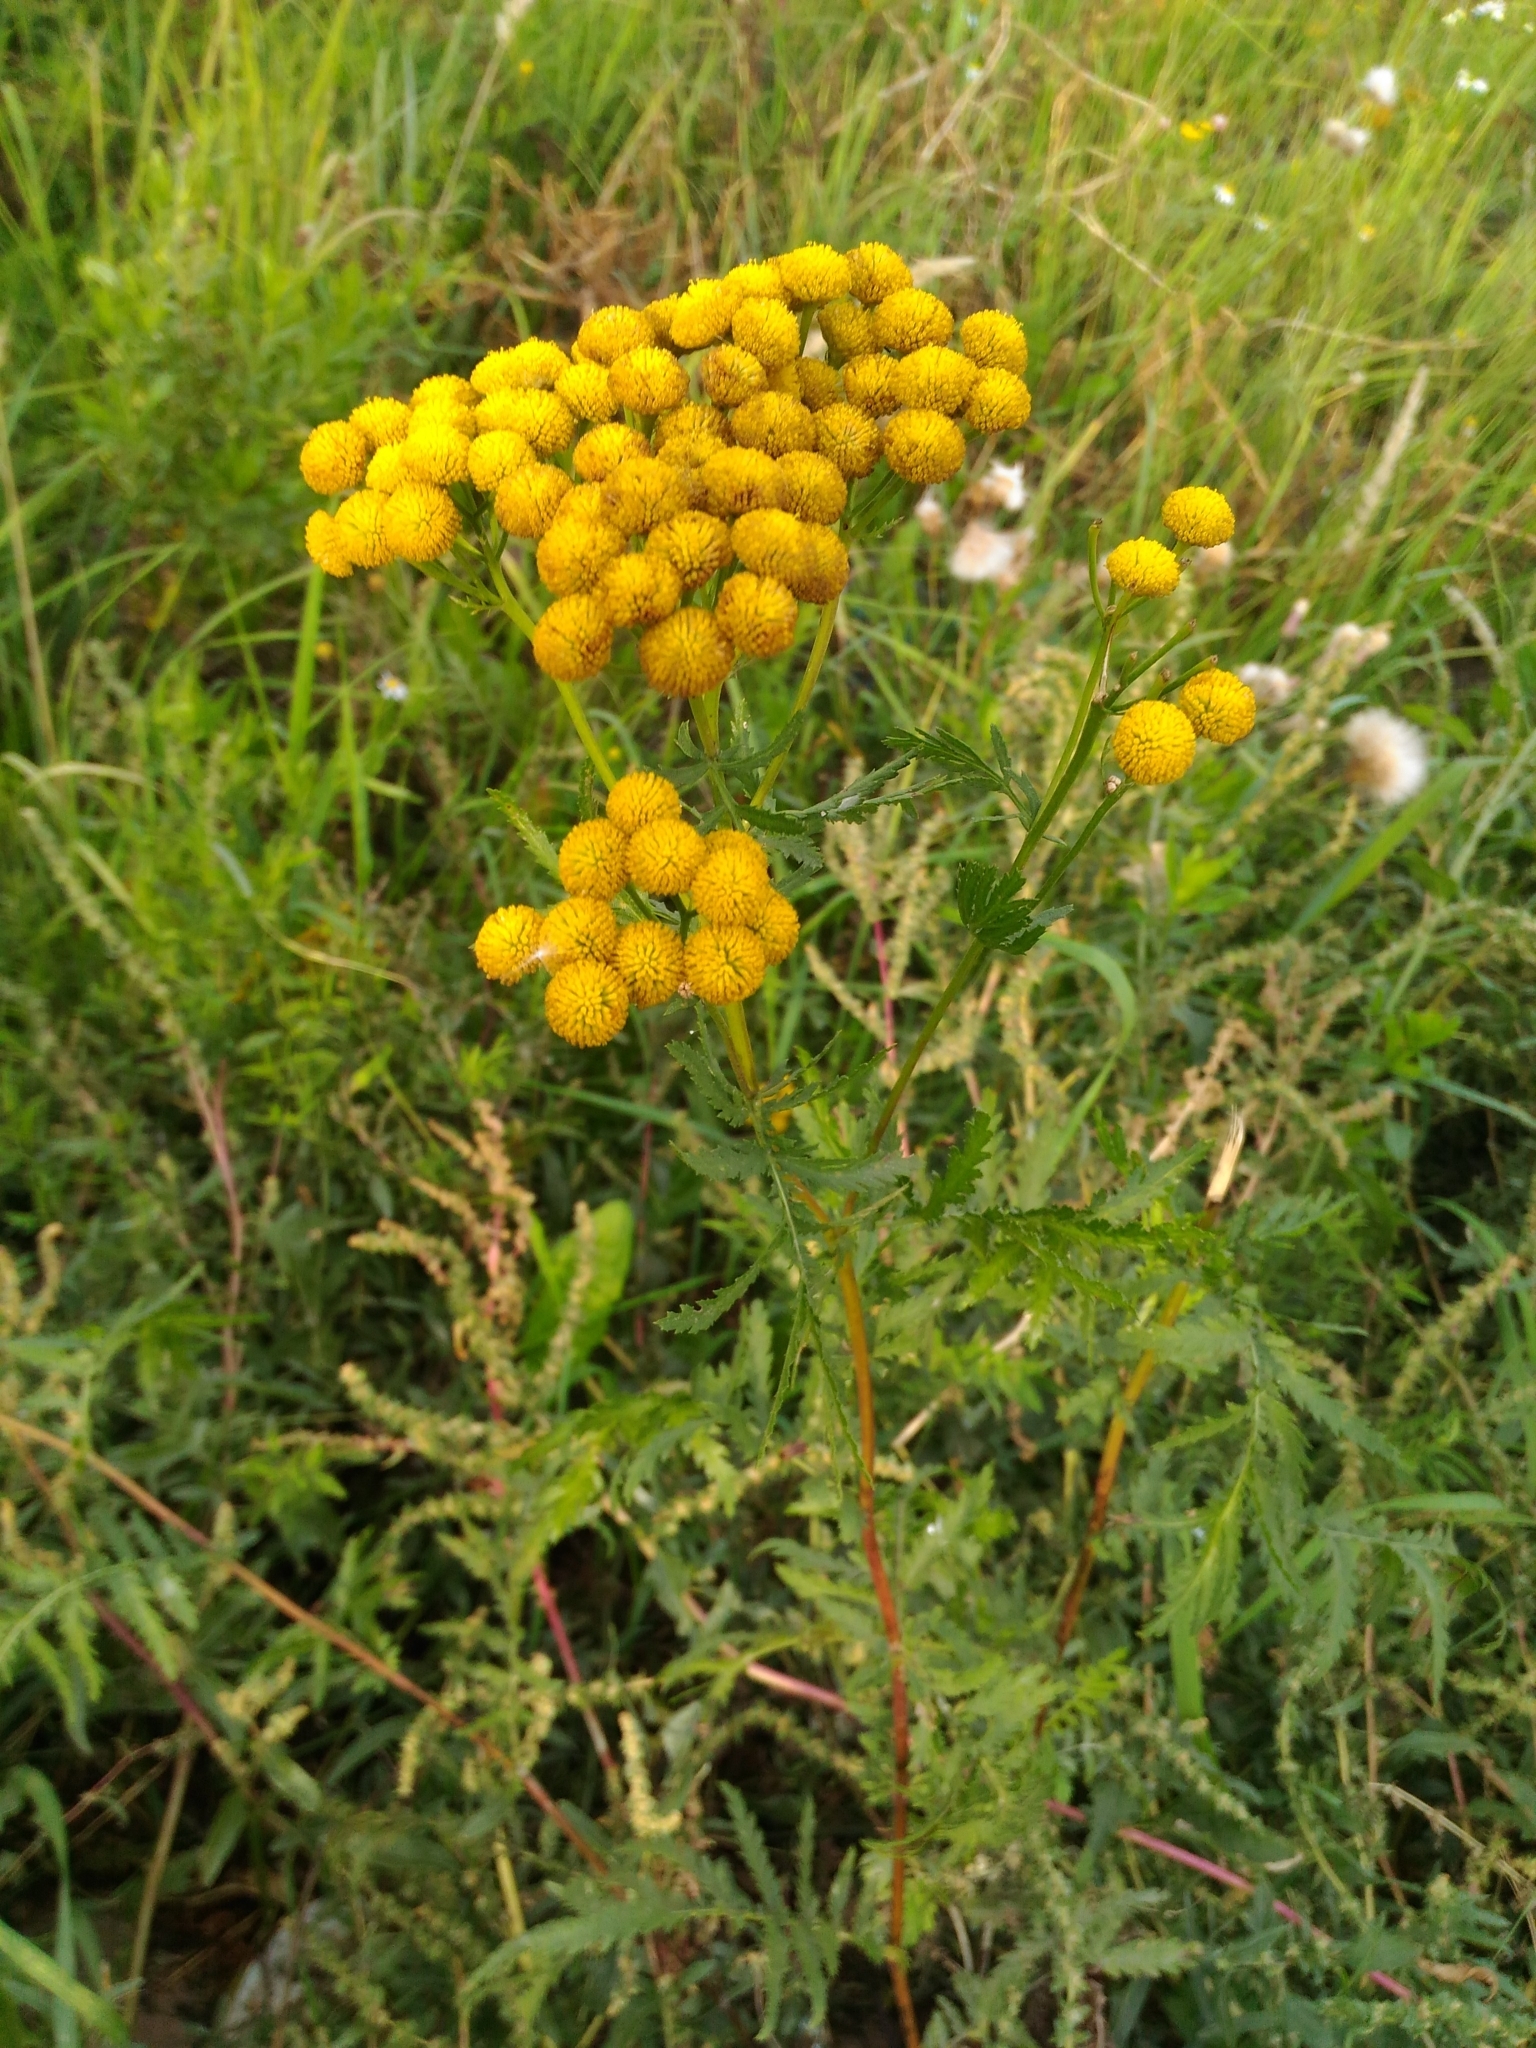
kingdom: Plantae
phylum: Tracheophyta
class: Magnoliopsida
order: Asterales
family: Asteraceae
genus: Tanacetum
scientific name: Tanacetum vulgare
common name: Common tansy
